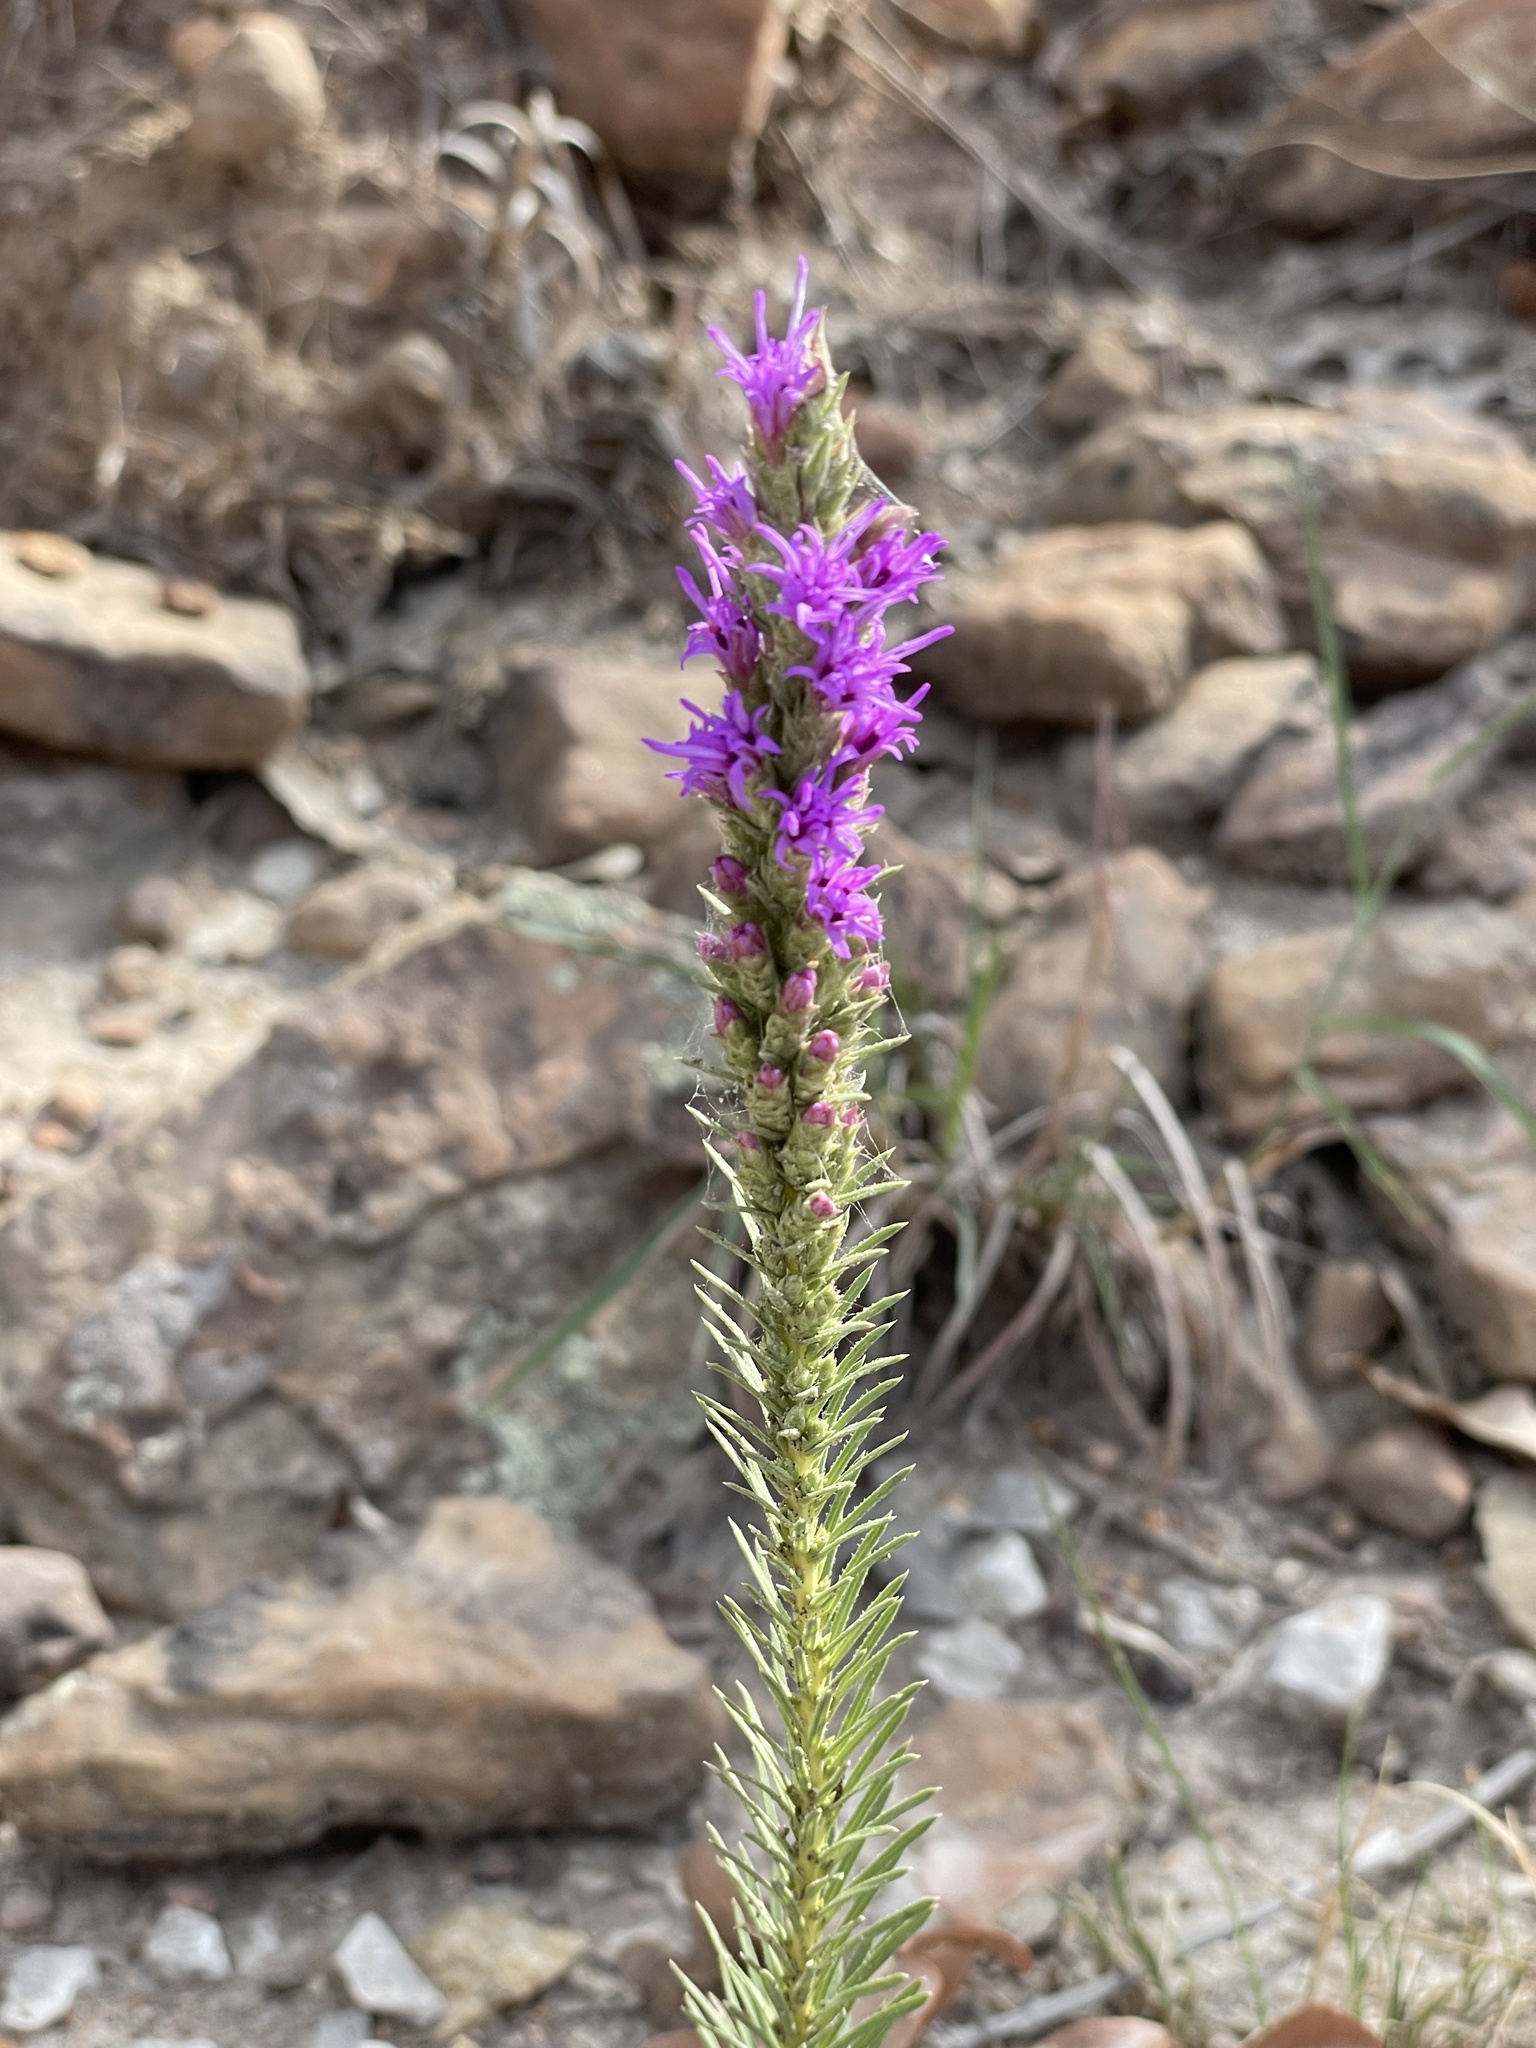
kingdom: Plantae
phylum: Tracheophyta
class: Magnoliopsida
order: Asterales
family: Asteraceae
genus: Liatris
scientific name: Liatris punctata
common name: Dotted gayfeather
